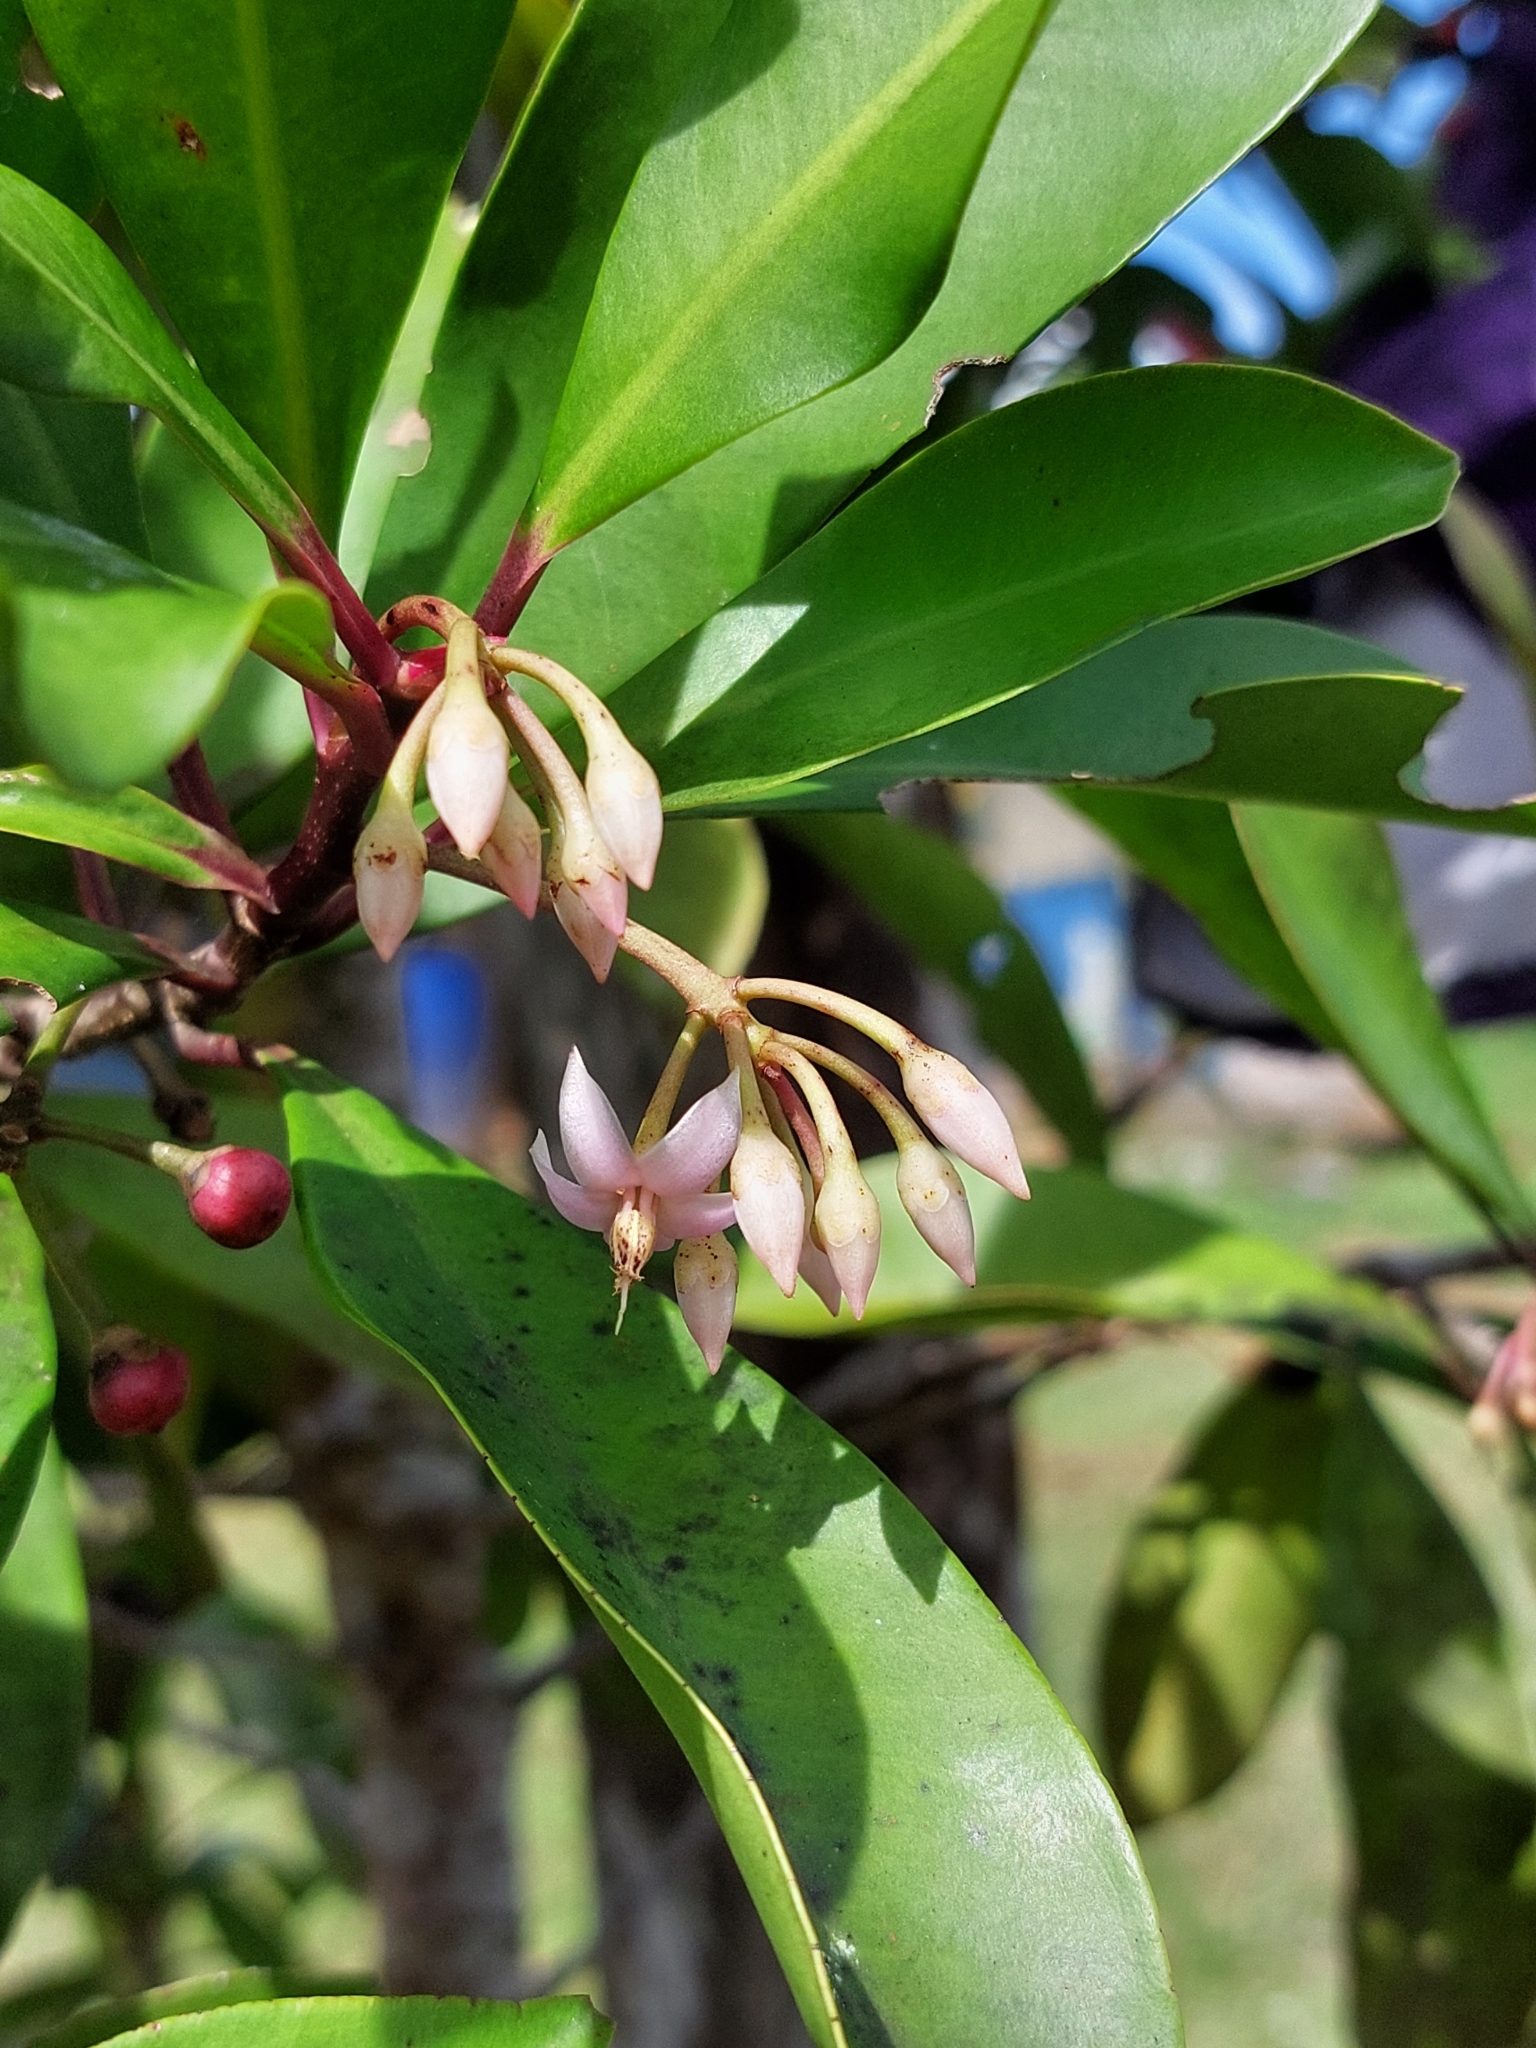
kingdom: Plantae
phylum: Tracheophyta
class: Magnoliopsida
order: Ericales
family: Primulaceae
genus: Ardisia
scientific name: Ardisia elliptica
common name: Shoebutton
